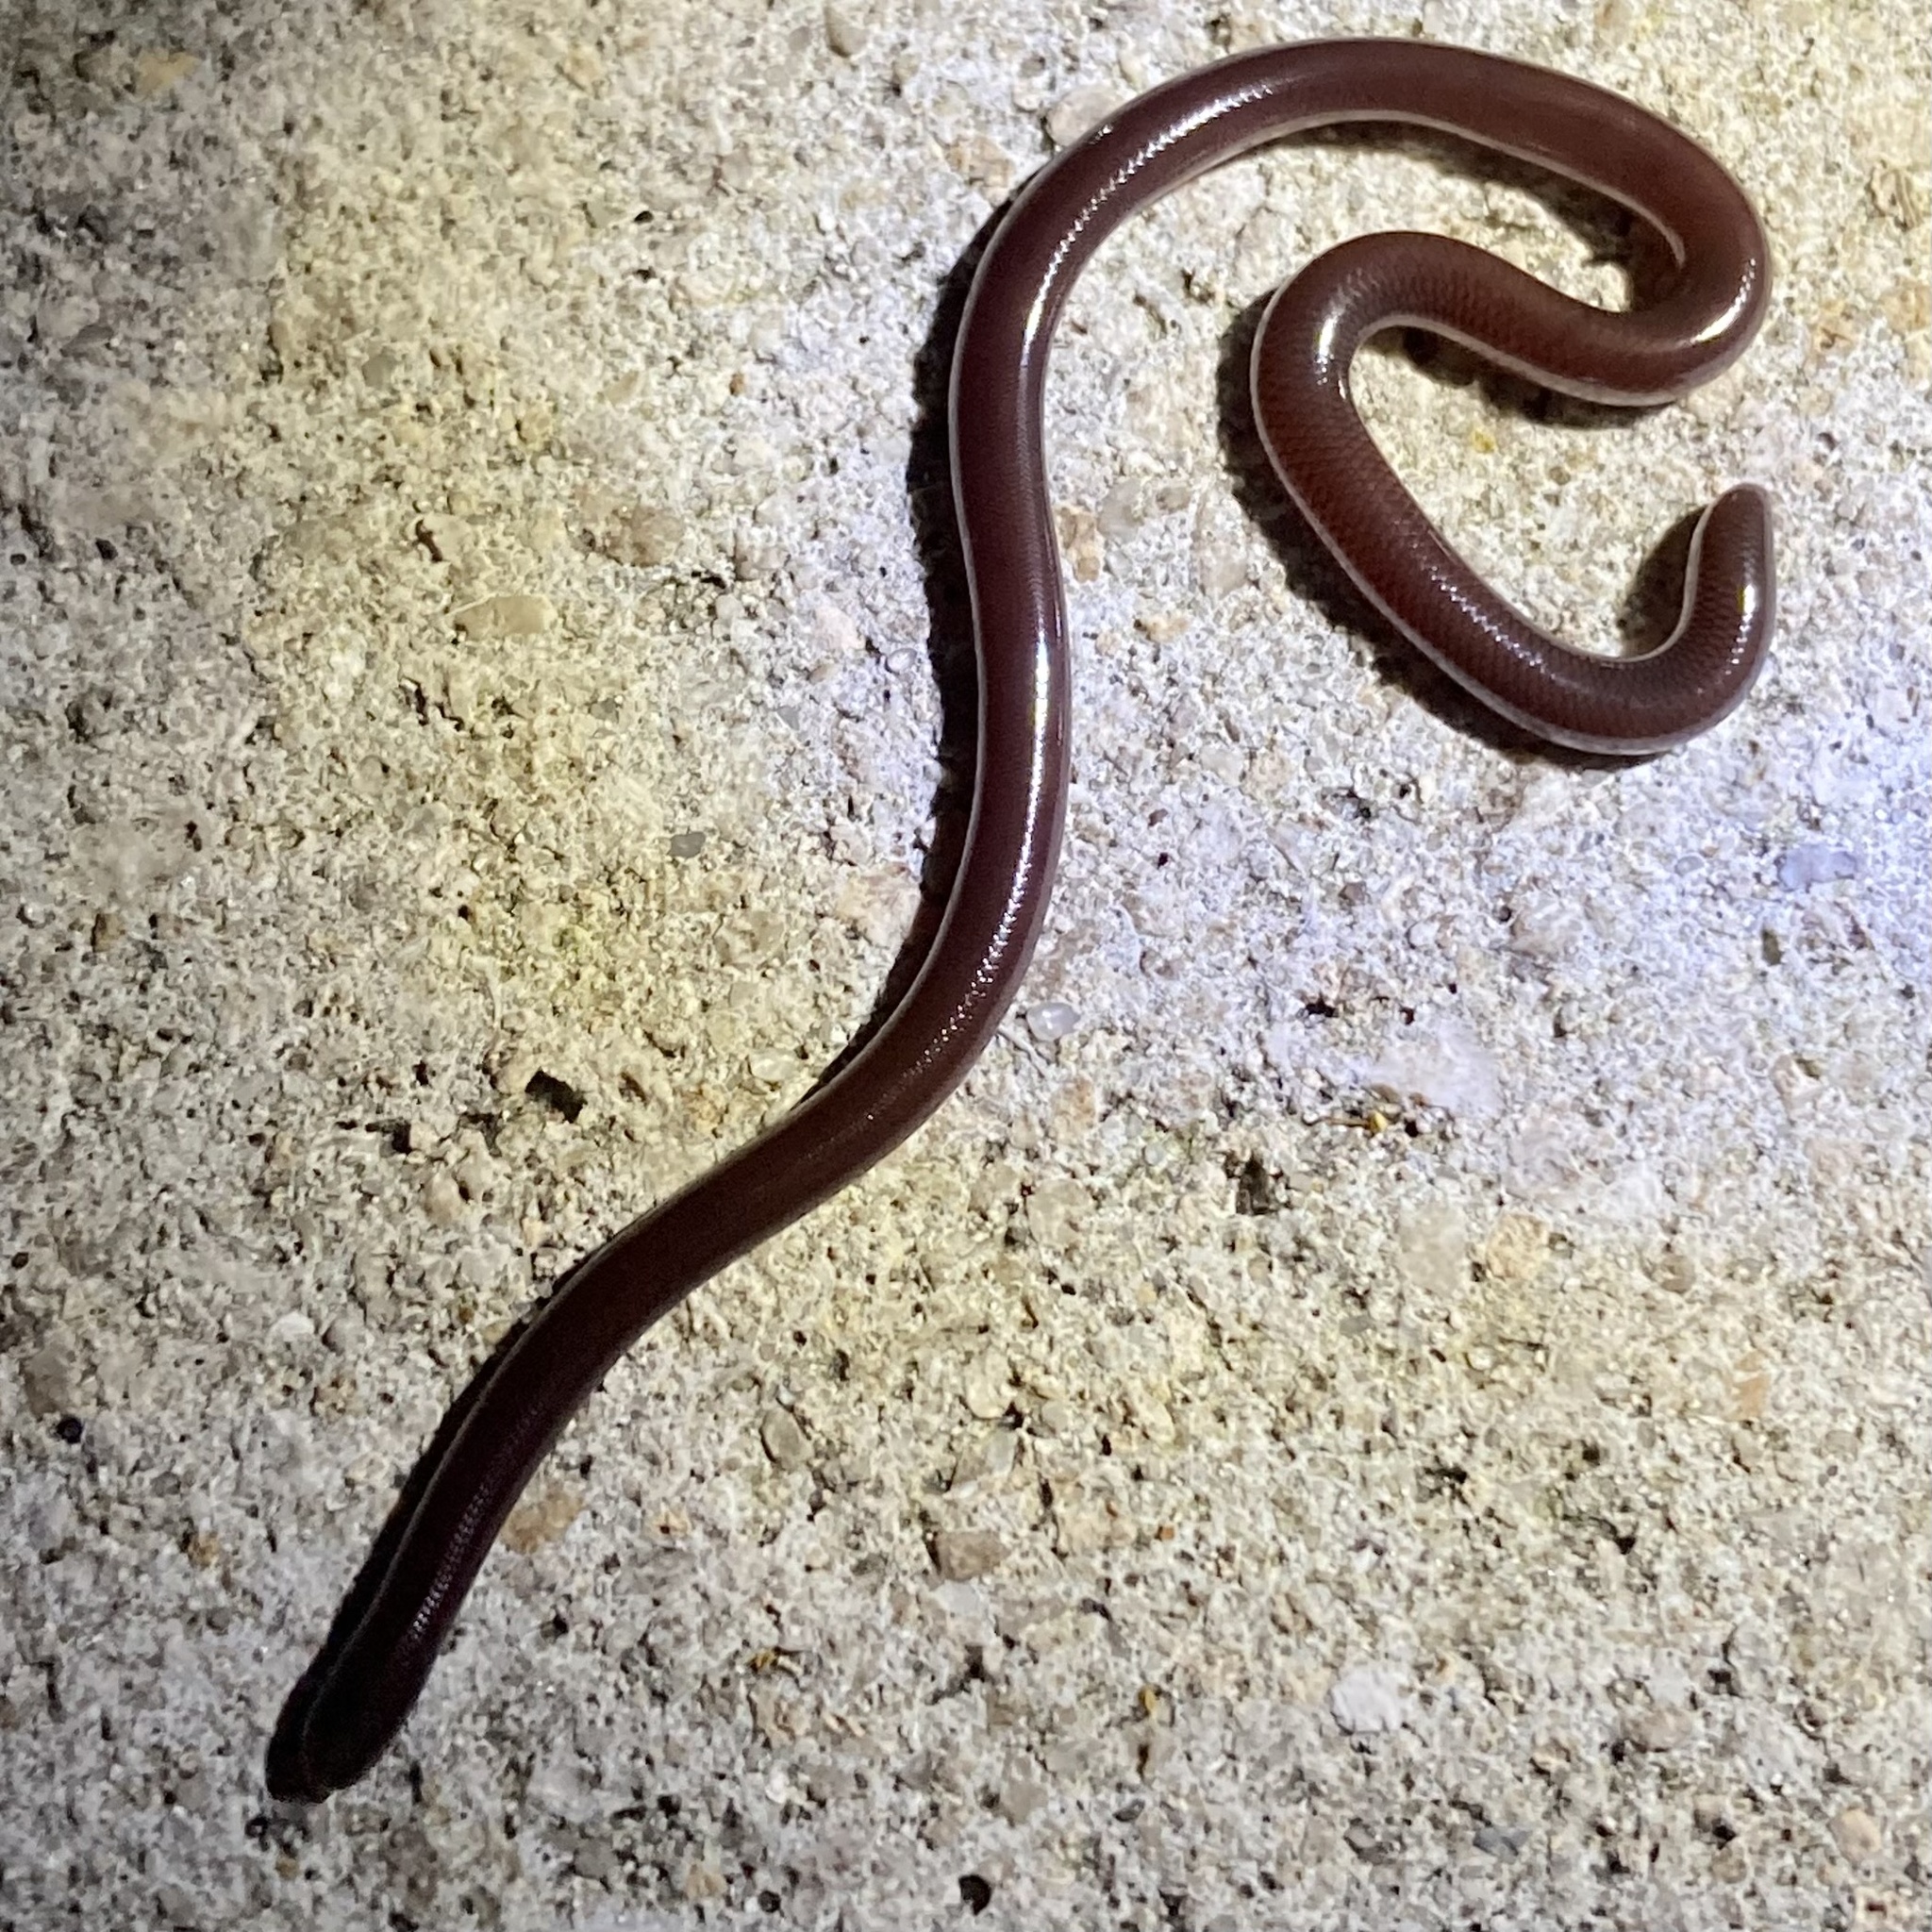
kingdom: Animalia
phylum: Chordata
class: Squamata
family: Typhlopidae
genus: Indotyphlops
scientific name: Indotyphlops braminus
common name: Brahminy blindsnake
